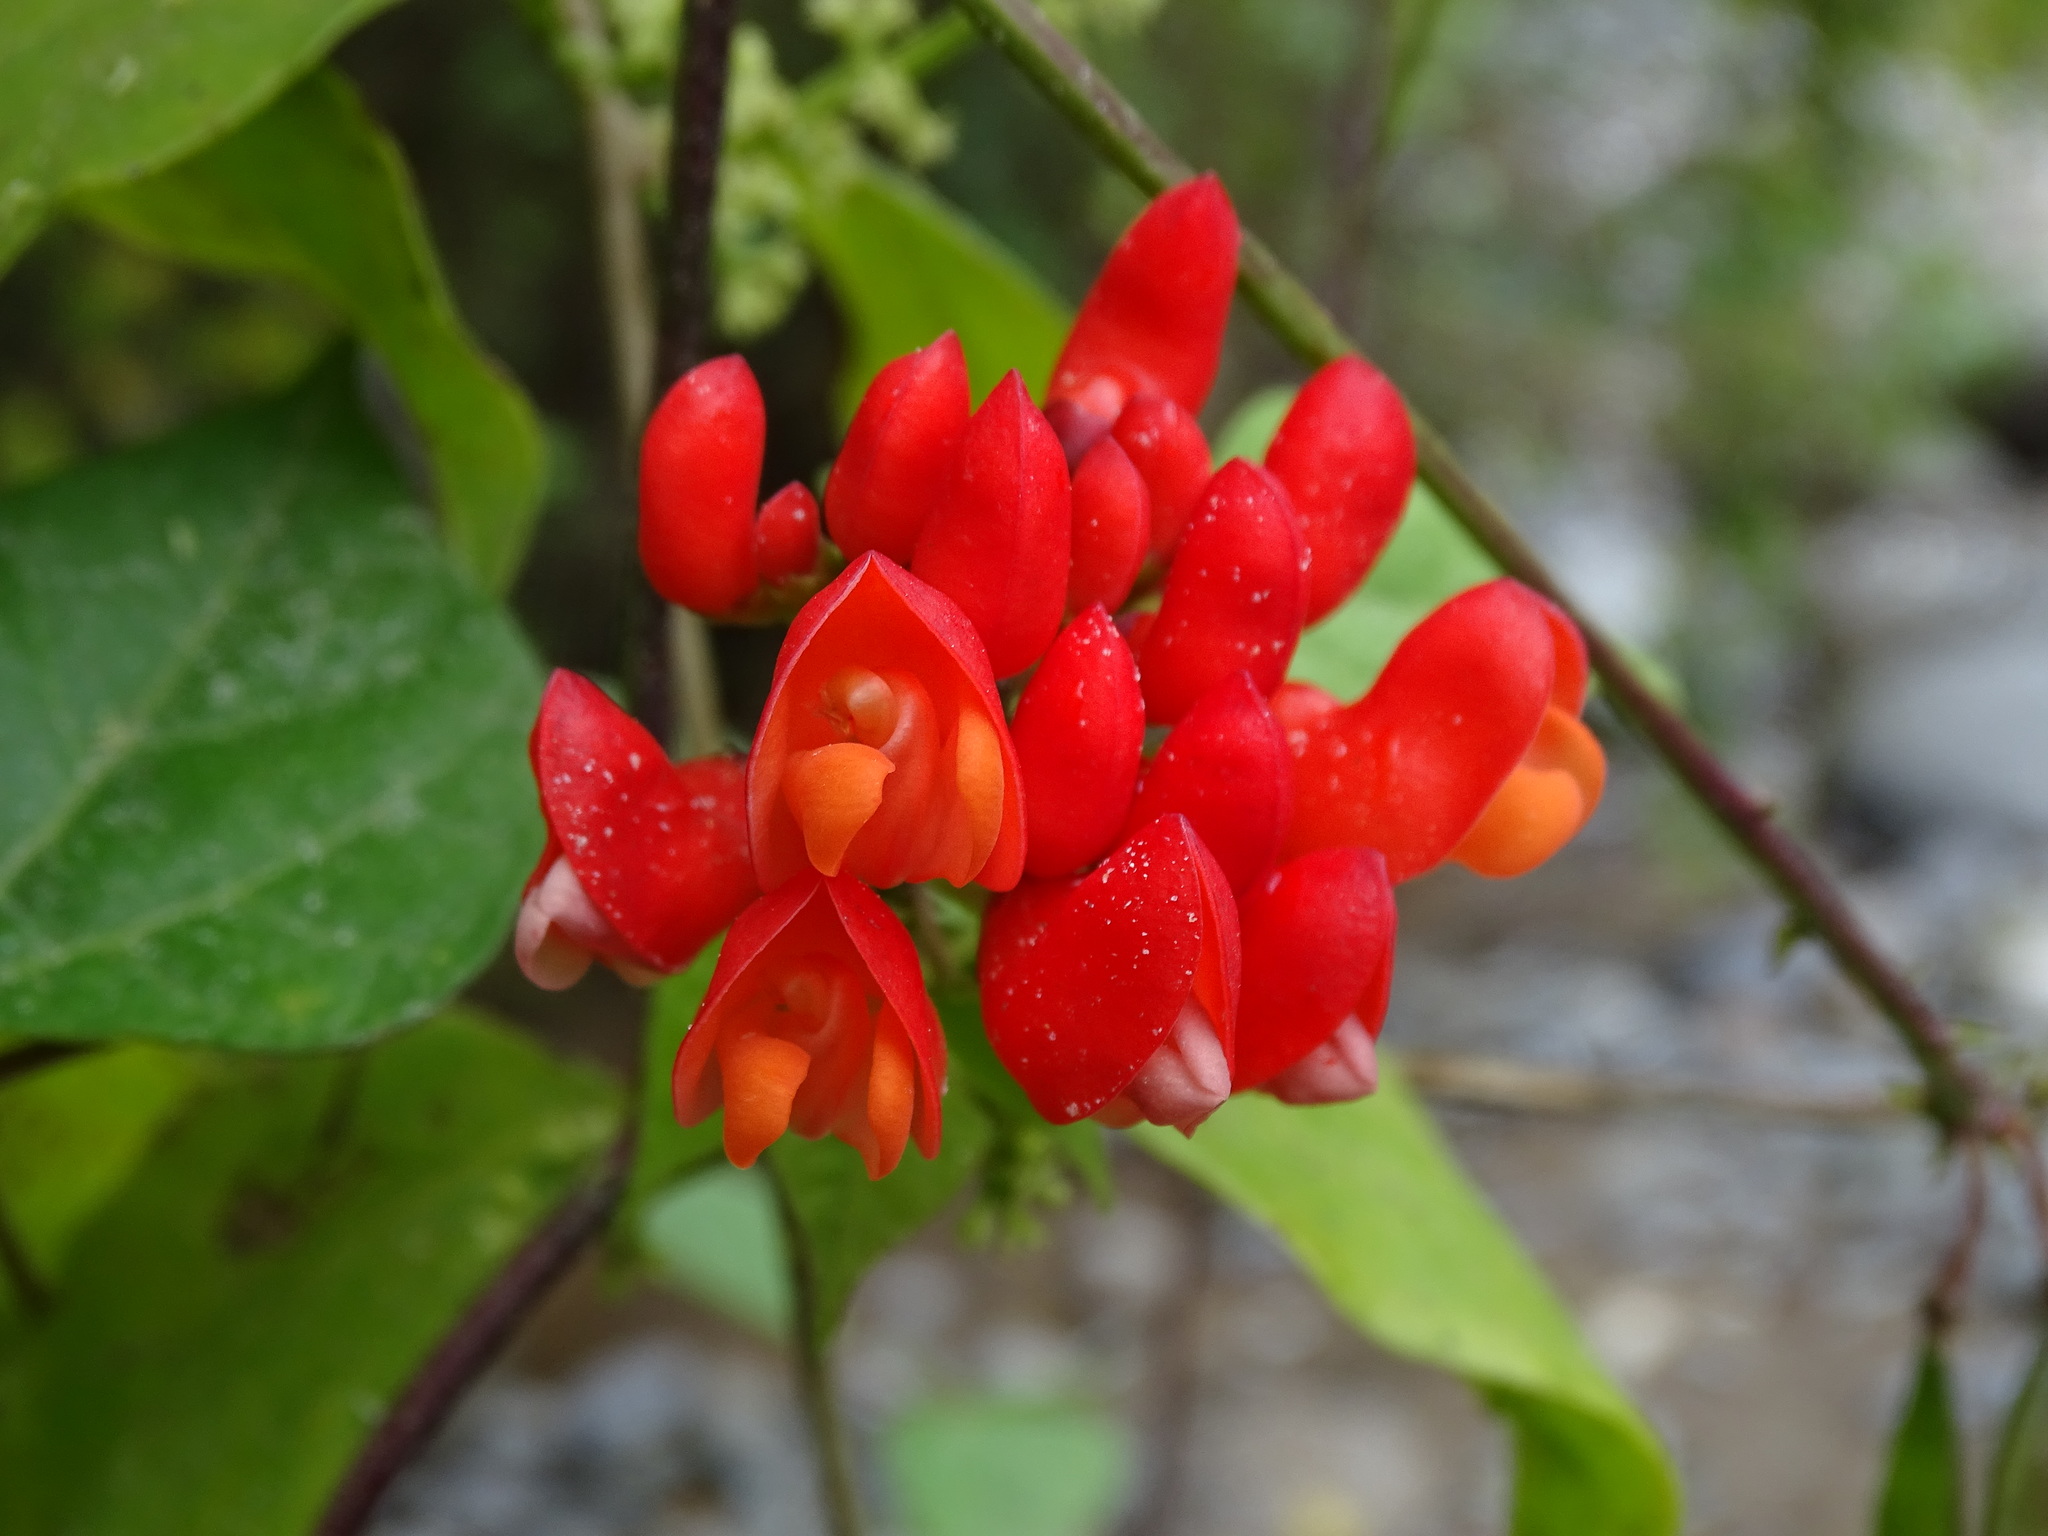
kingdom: Plantae
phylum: Tracheophyta
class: Magnoliopsida
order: Fabales
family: Fabaceae
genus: Phaseolus
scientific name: Phaseolus coccineus
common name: Runner bean
